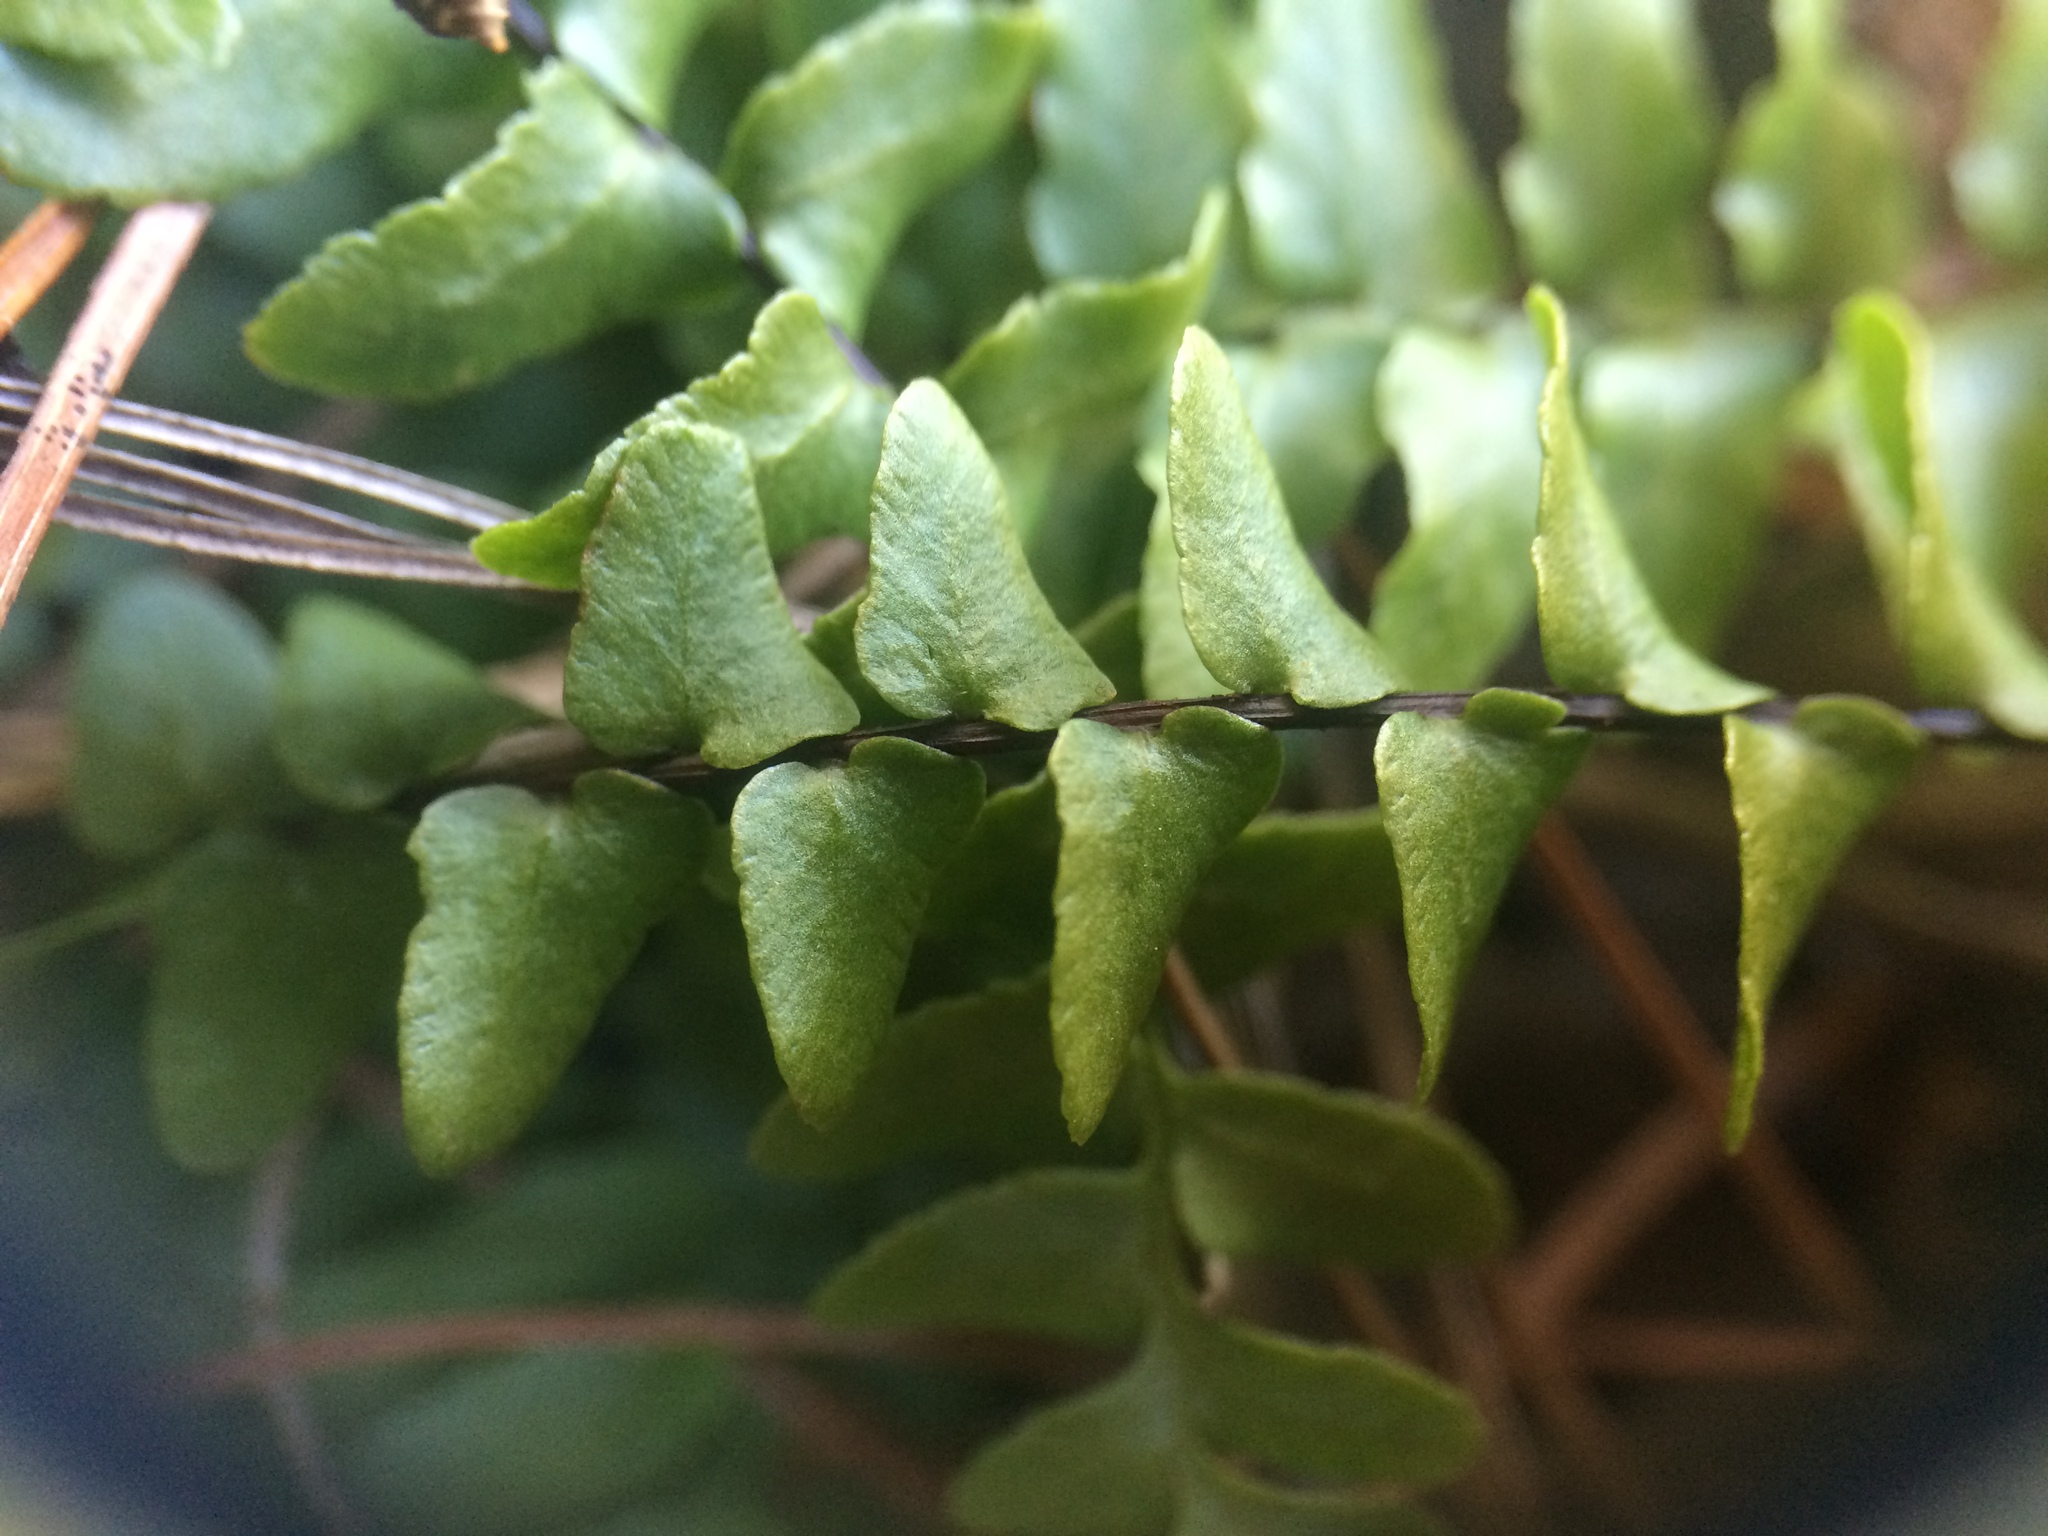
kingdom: Plantae
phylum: Tracheophyta
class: Polypodiopsida
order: Polypodiales
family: Aspleniaceae
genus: Asplenium
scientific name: Asplenium platyneuron
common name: Ebony spleenwort
